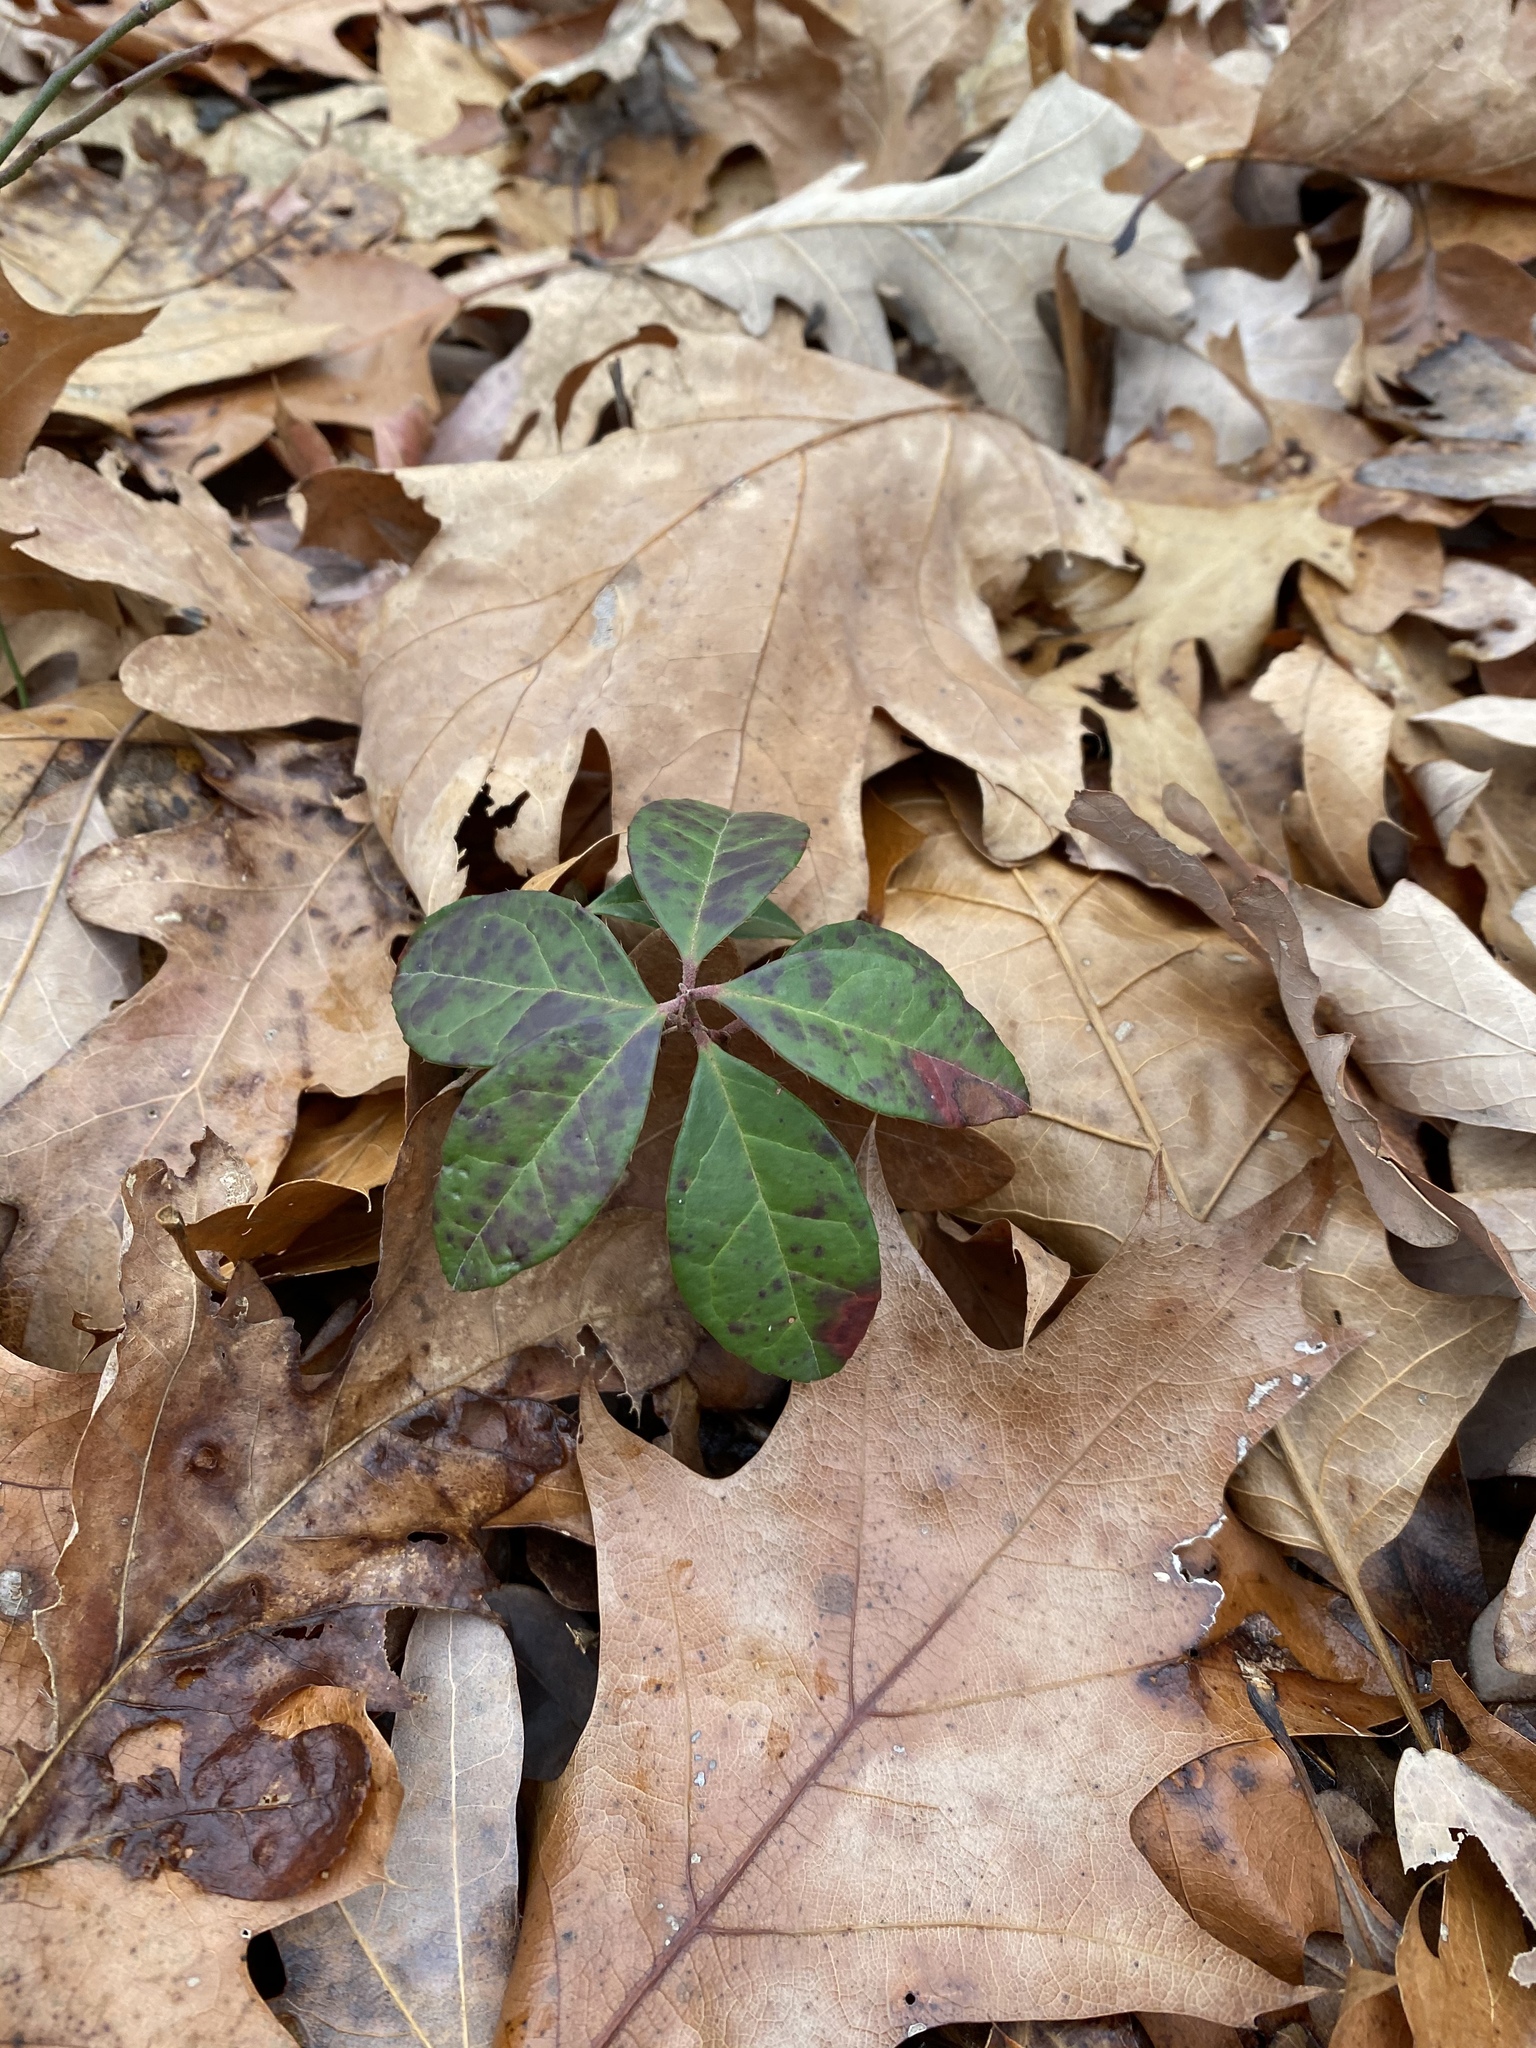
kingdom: Plantae
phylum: Tracheophyta
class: Magnoliopsida
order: Ericales
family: Ericaceae
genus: Gaultheria
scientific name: Gaultheria procumbens
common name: Checkerberry
